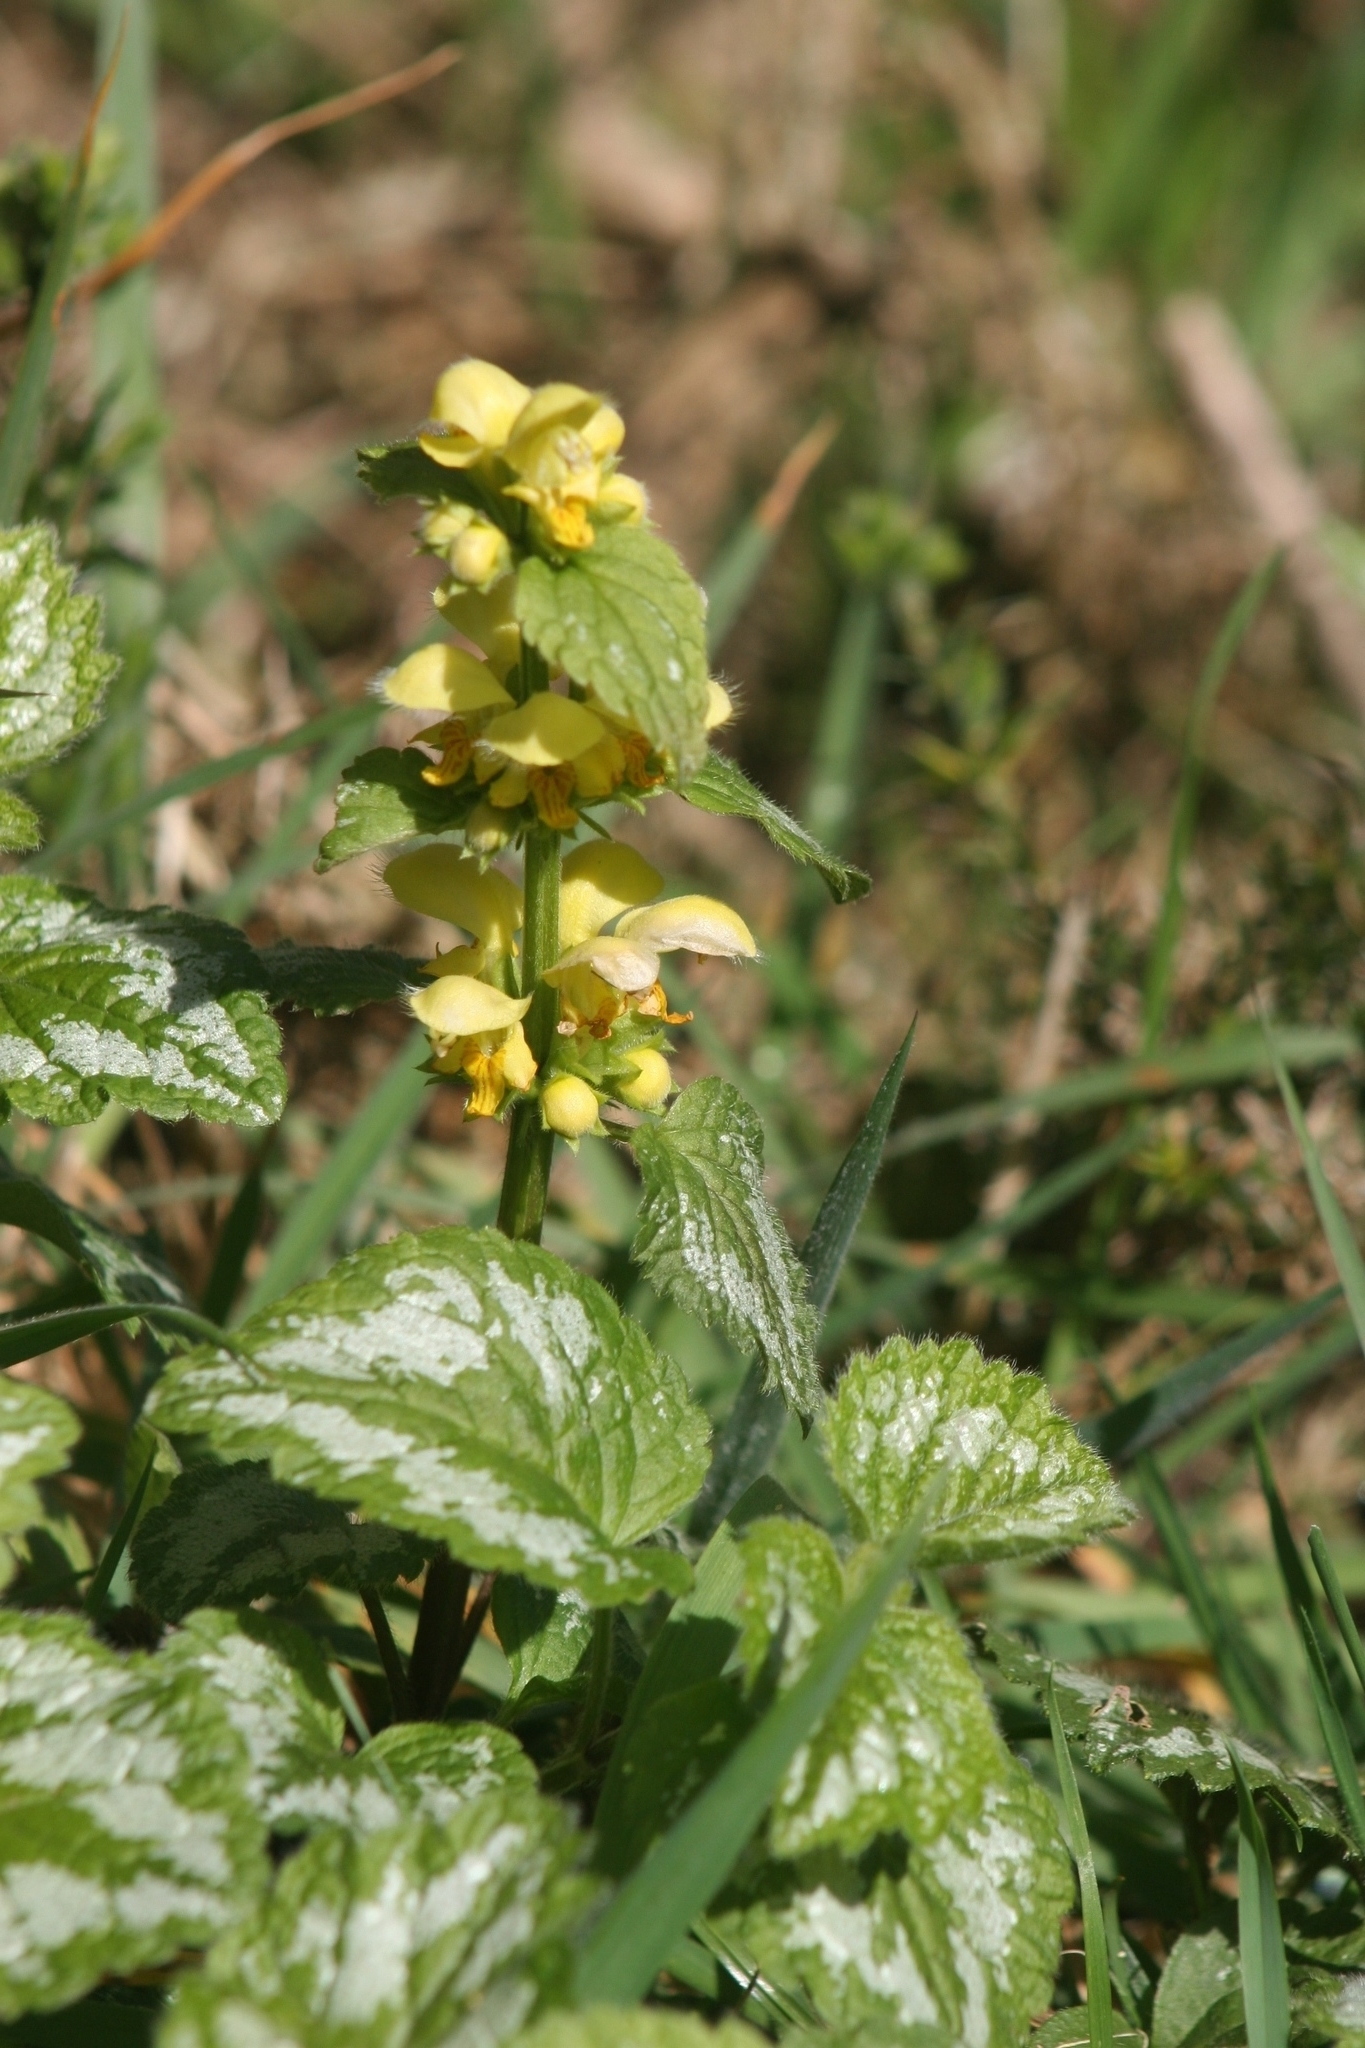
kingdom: Plantae
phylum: Tracheophyta
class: Magnoliopsida
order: Lamiales
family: Lamiaceae
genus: Lamium
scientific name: Lamium galeobdolon
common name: Yellow archangel
